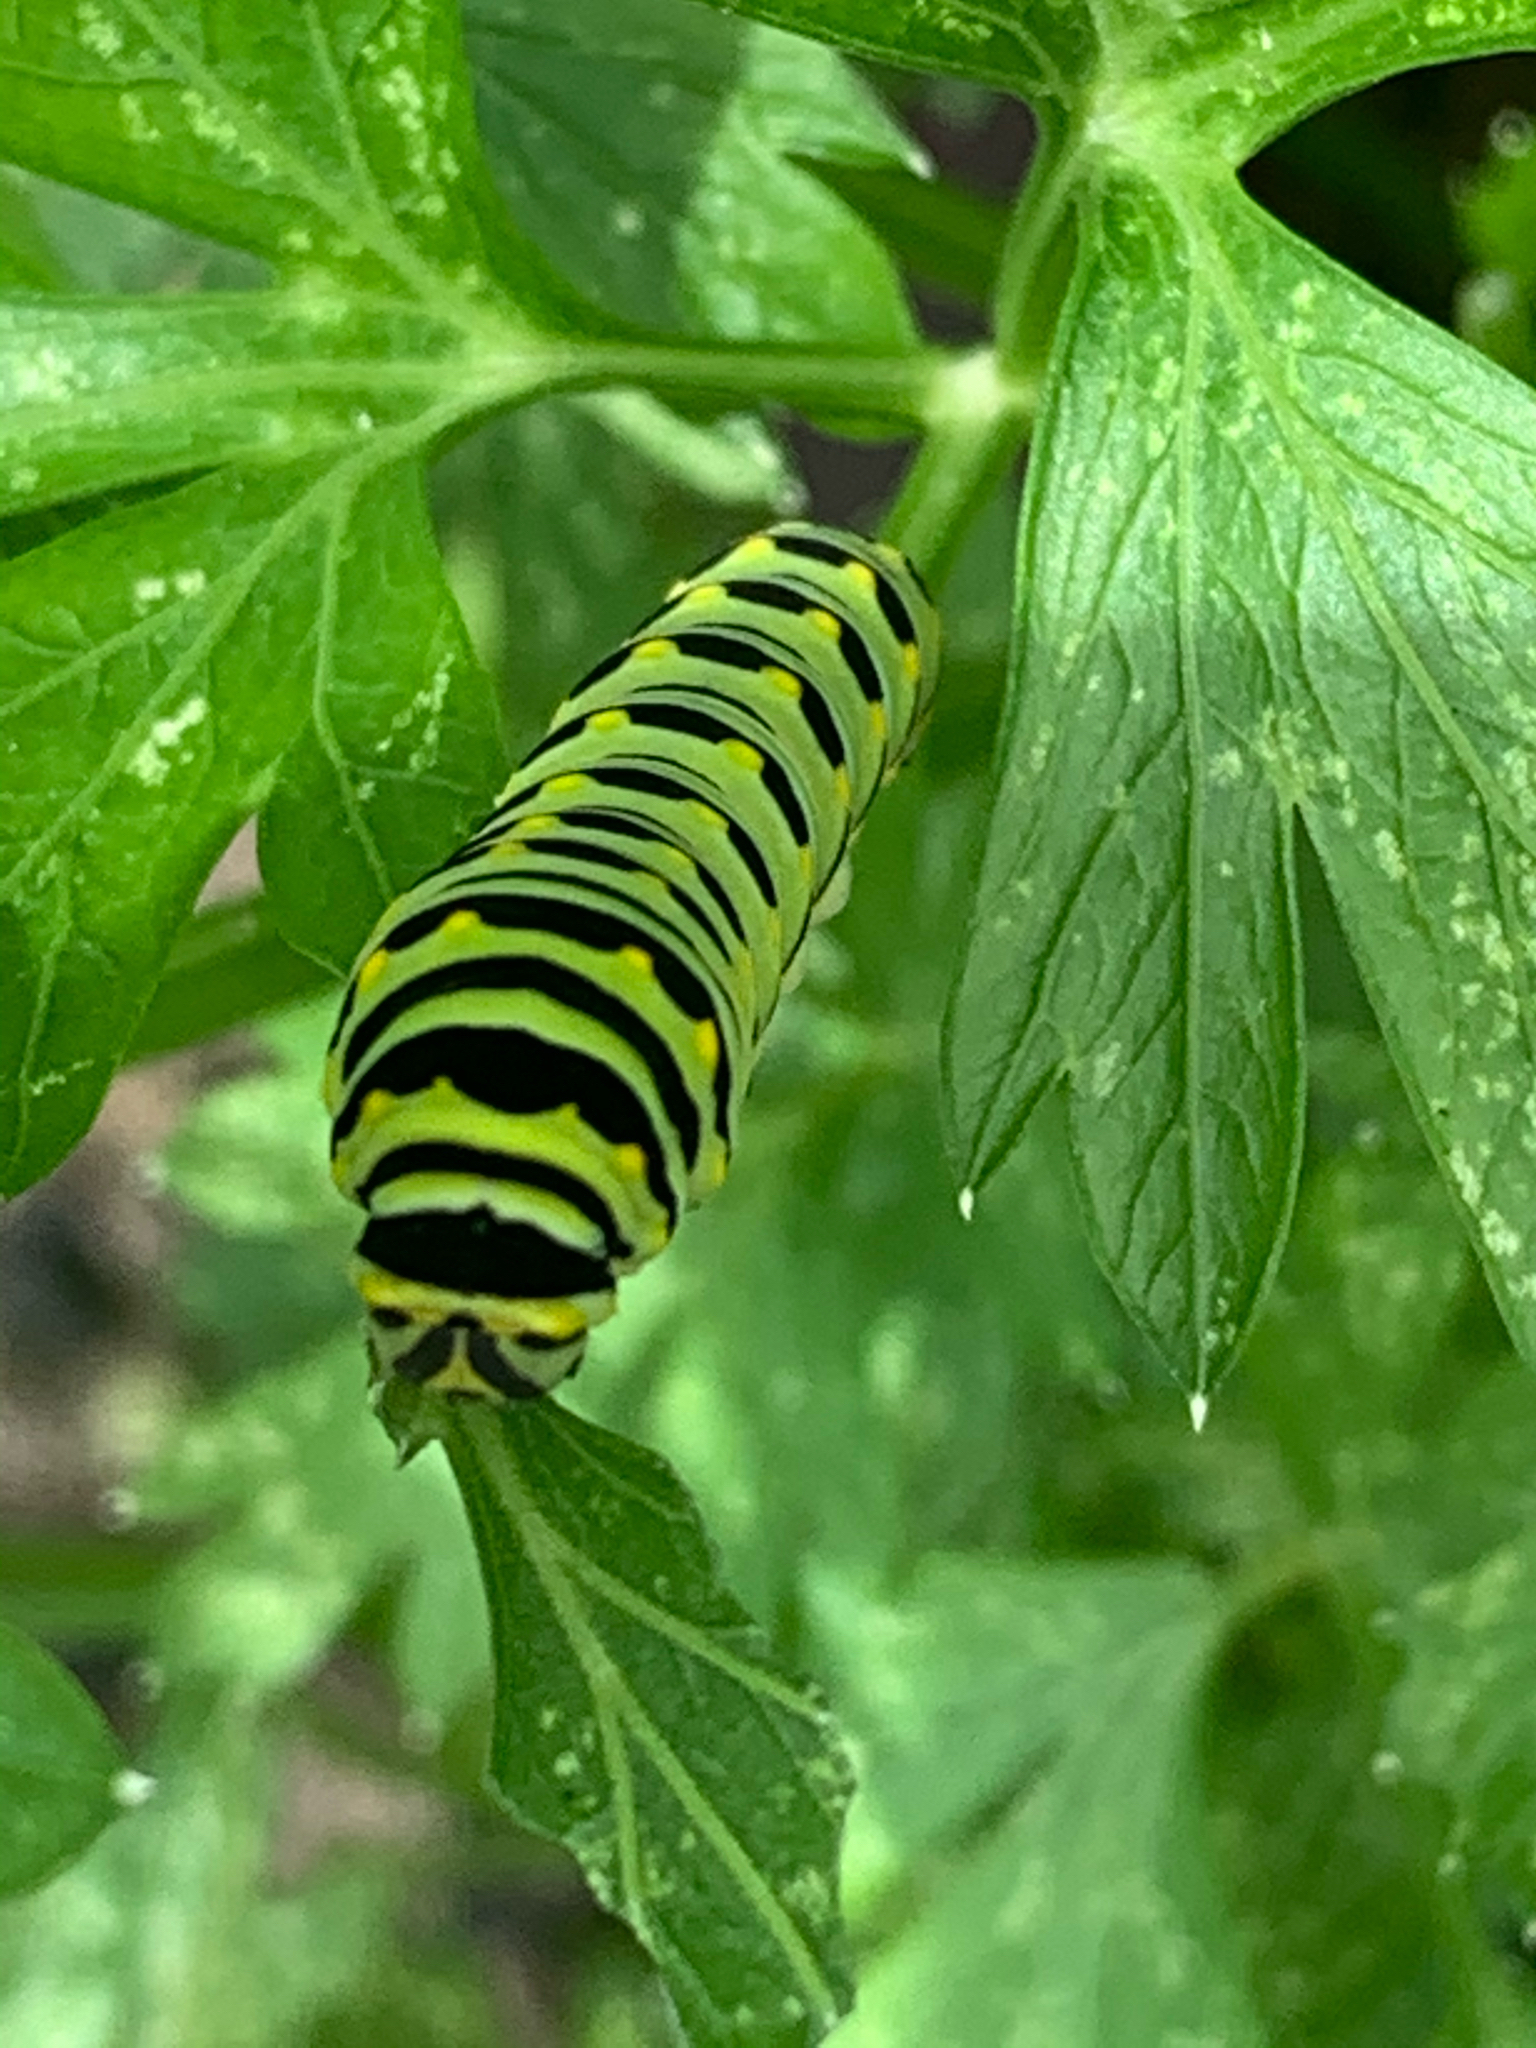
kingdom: Animalia
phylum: Arthropoda
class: Insecta
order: Lepidoptera
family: Papilionidae
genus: Papilio
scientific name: Papilio polyxenes
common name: Black swallowtail
